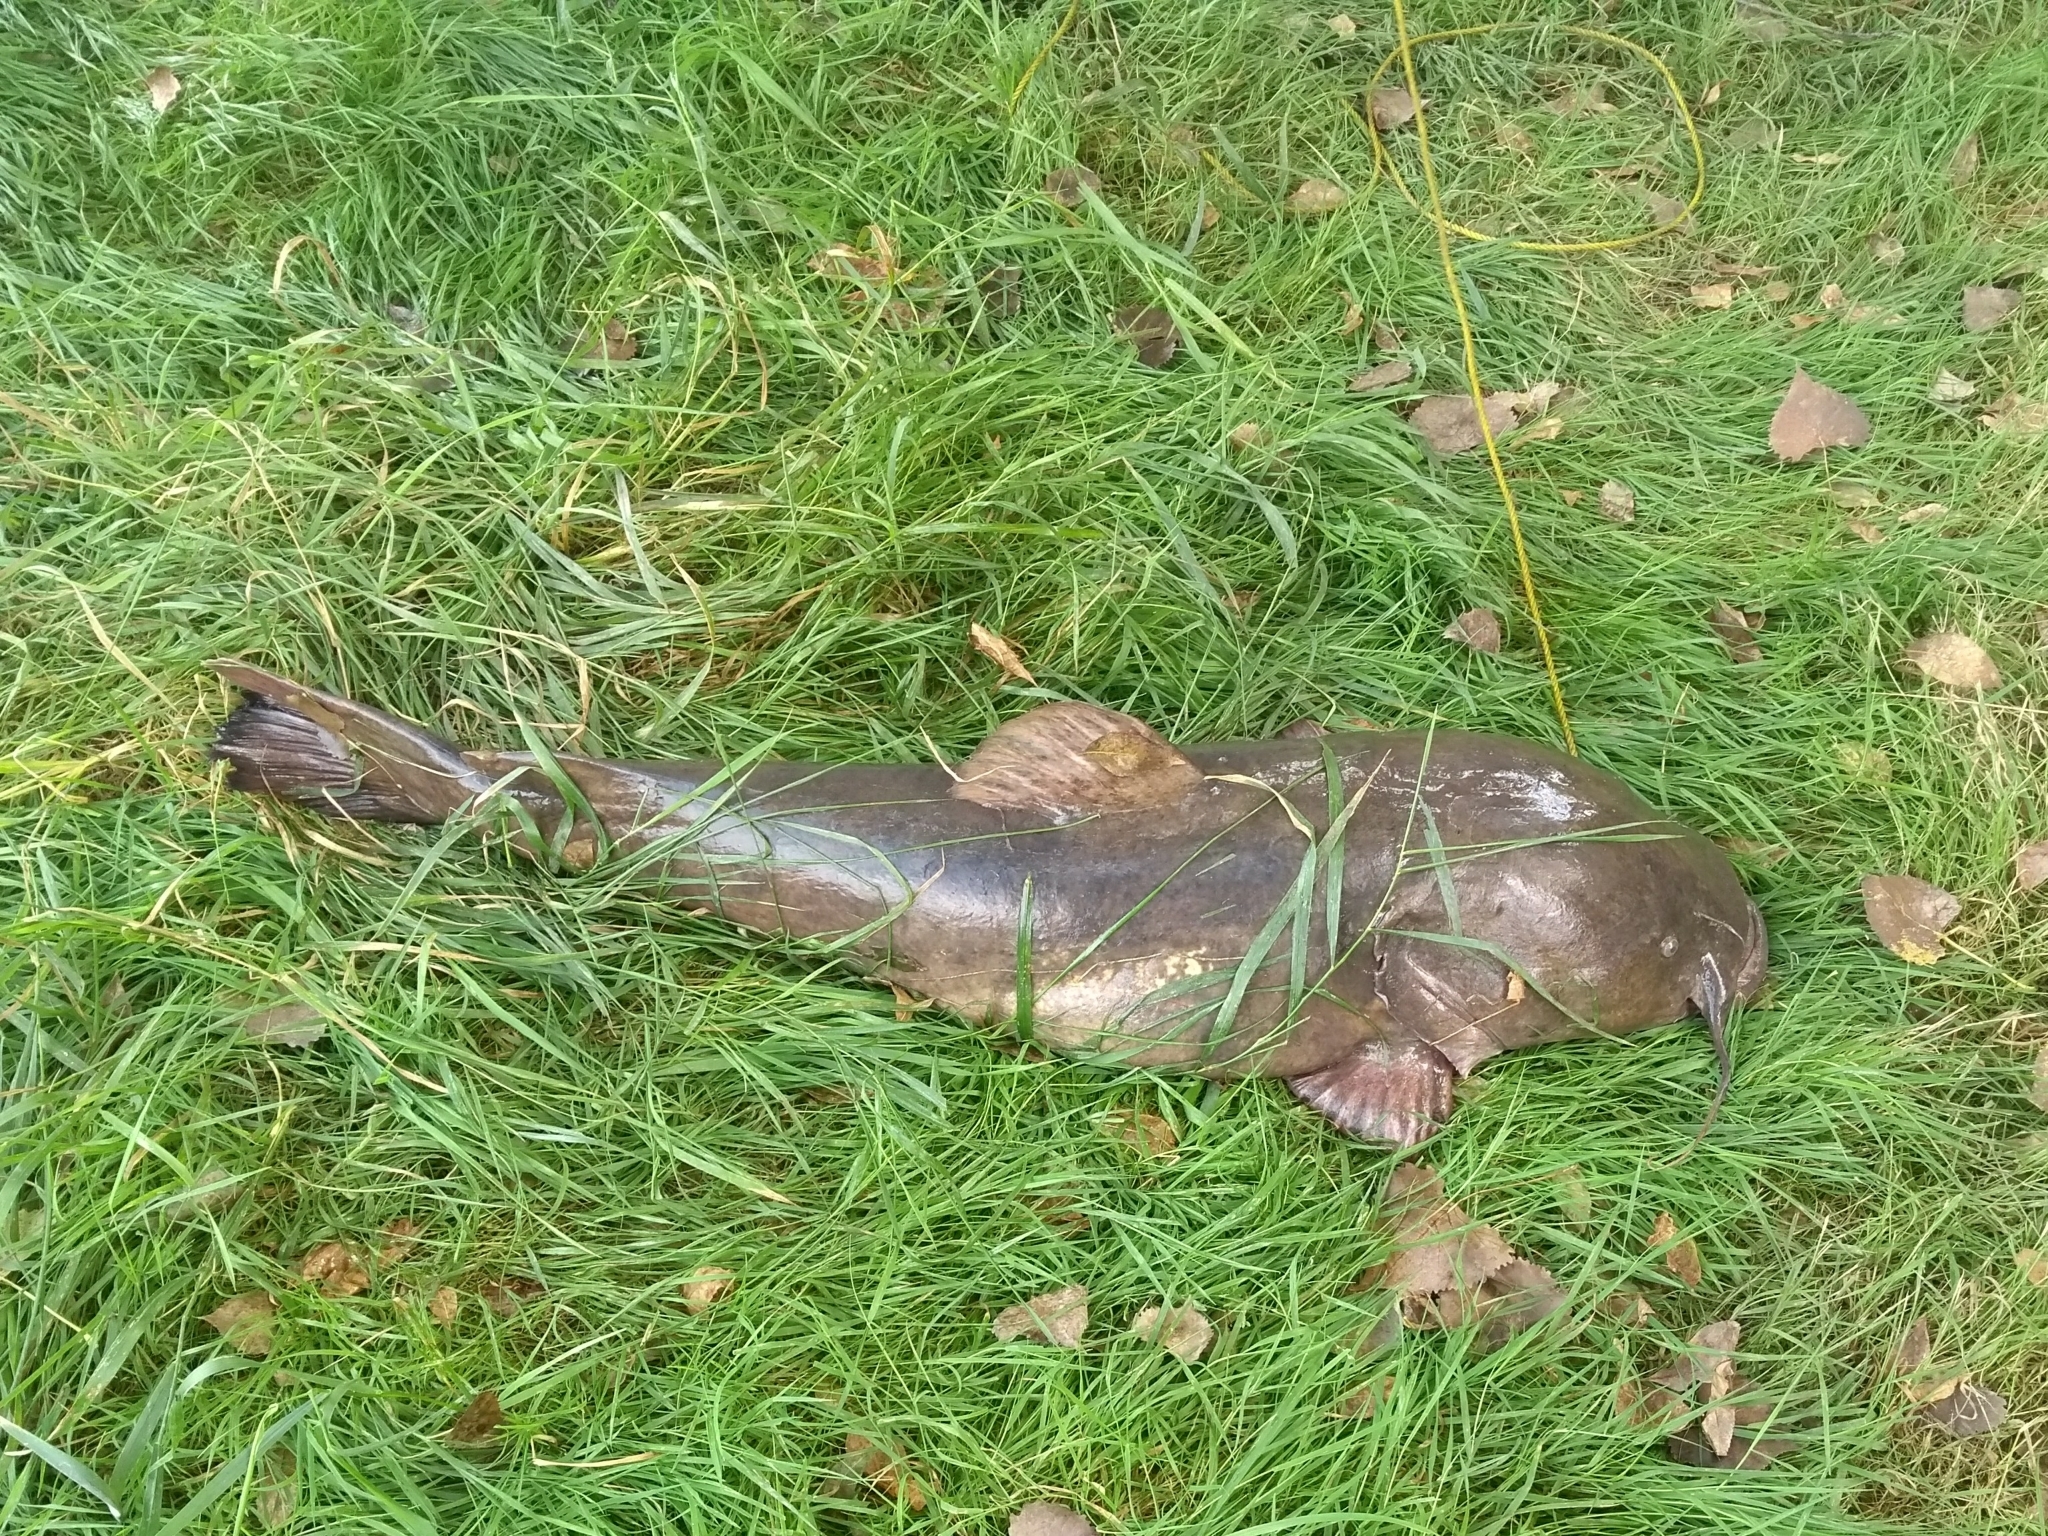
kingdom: Animalia
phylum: Chordata
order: Siluriformes
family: Ictaluridae
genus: Pylodictis
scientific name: Pylodictis olivaris
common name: Flathead catfish
